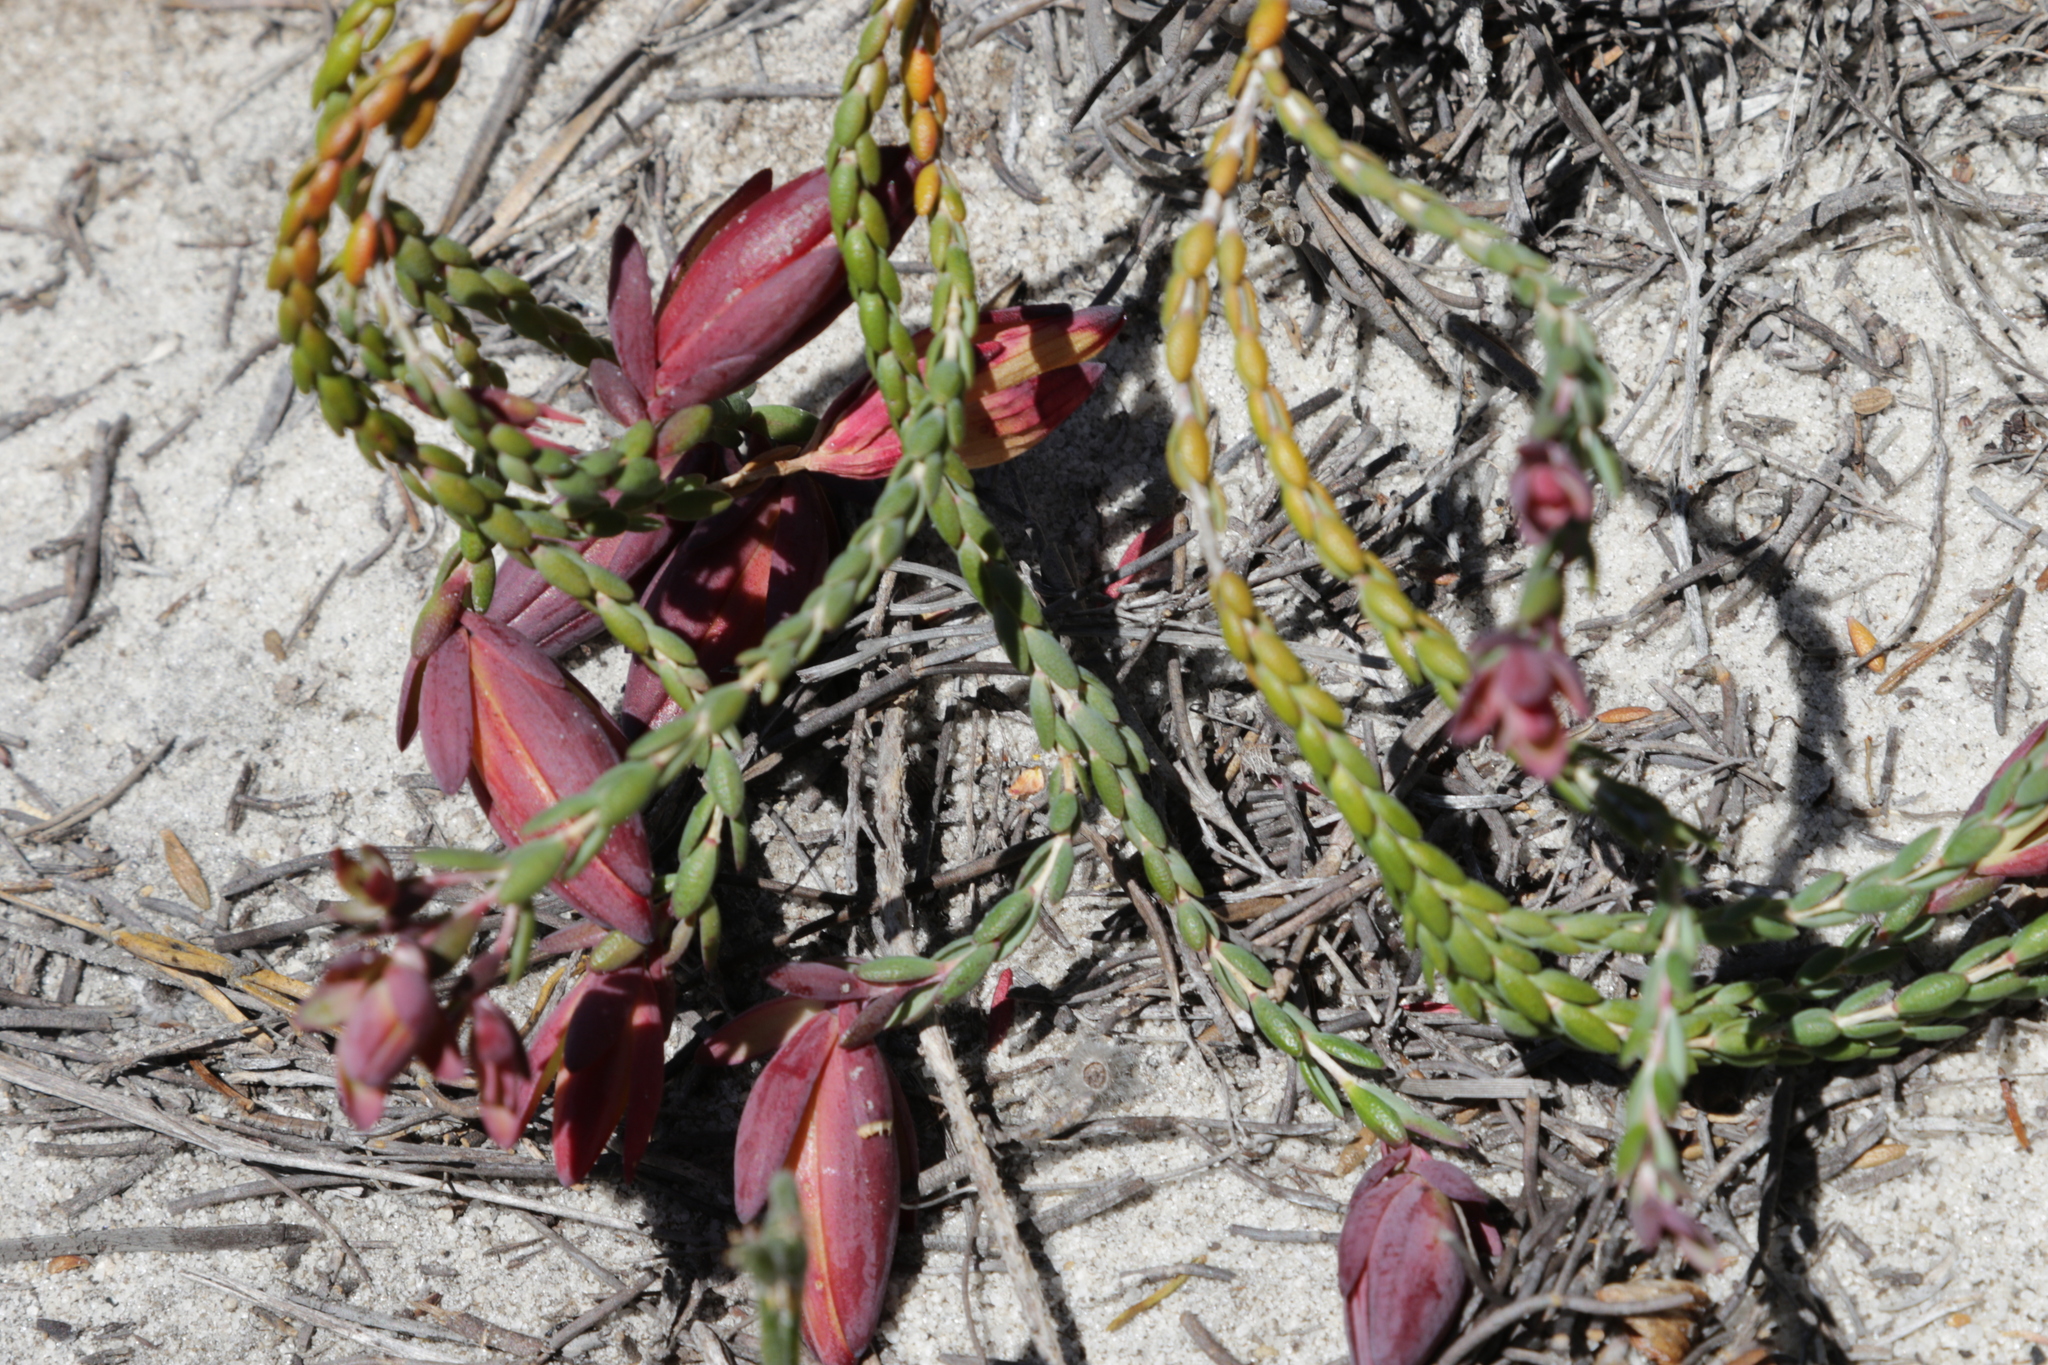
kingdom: Plantae
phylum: Tracheophyta
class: Magnoliopsida
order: Myrtales
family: Myrtaceae
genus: Darwinia
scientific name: Darwinia speciosa
